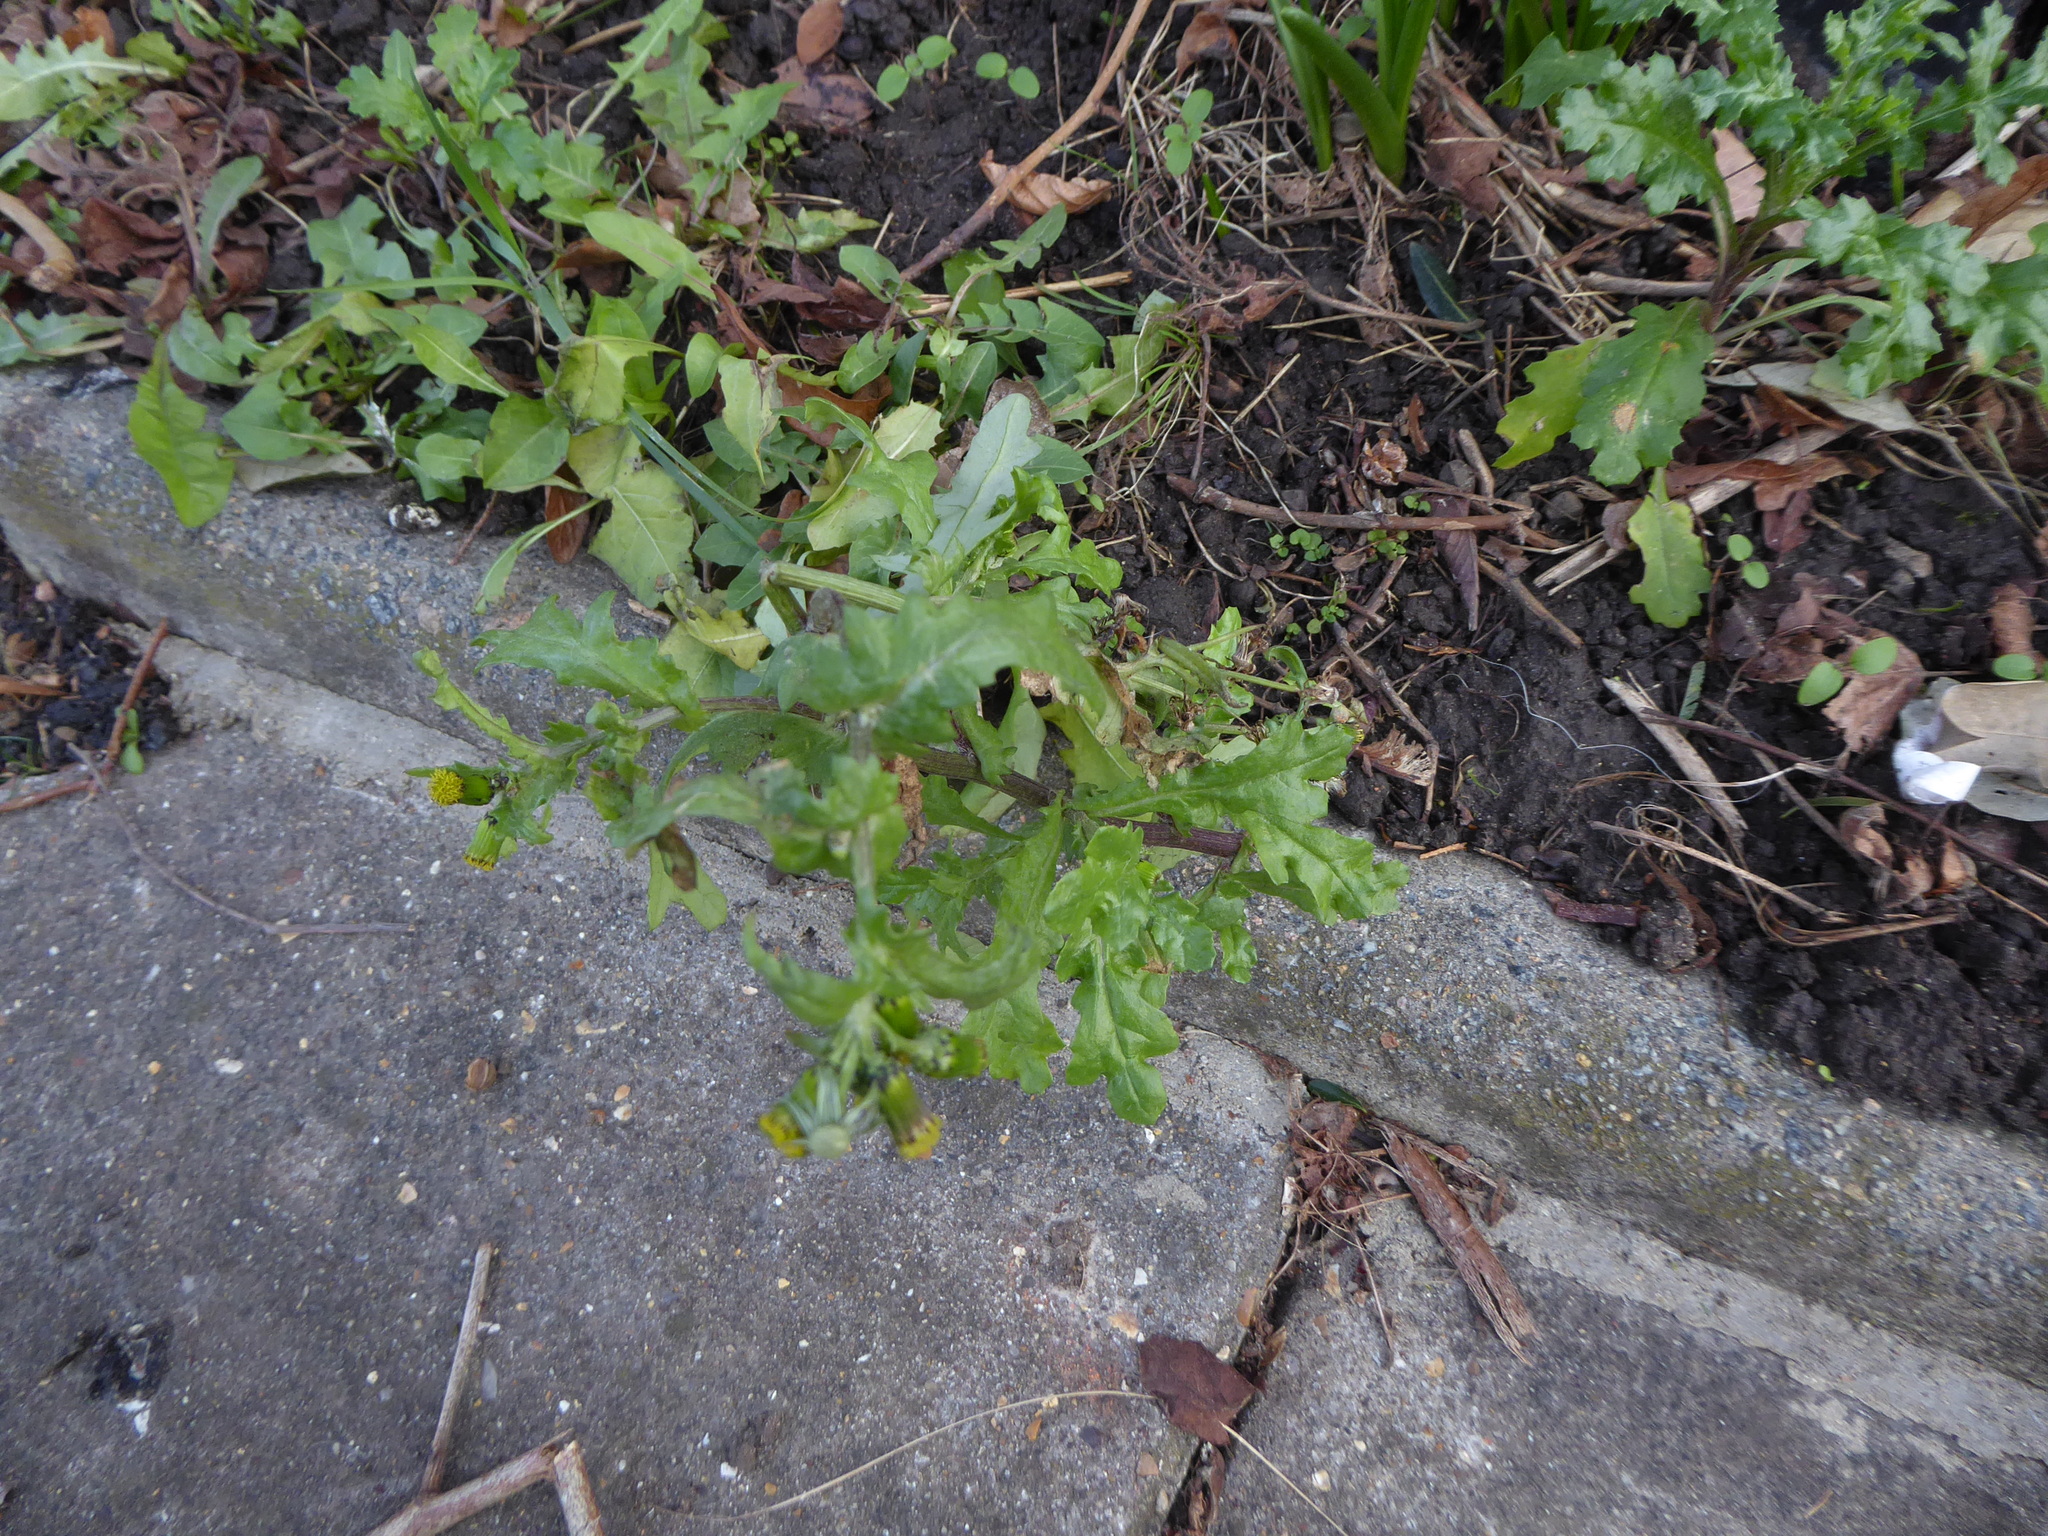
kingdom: Plantae
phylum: Tracheophyta
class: Magnoliopsida
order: Asterales
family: Asteraceae
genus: Senecio
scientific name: Senecio vulgaris
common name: Old-man-in-the-spring
